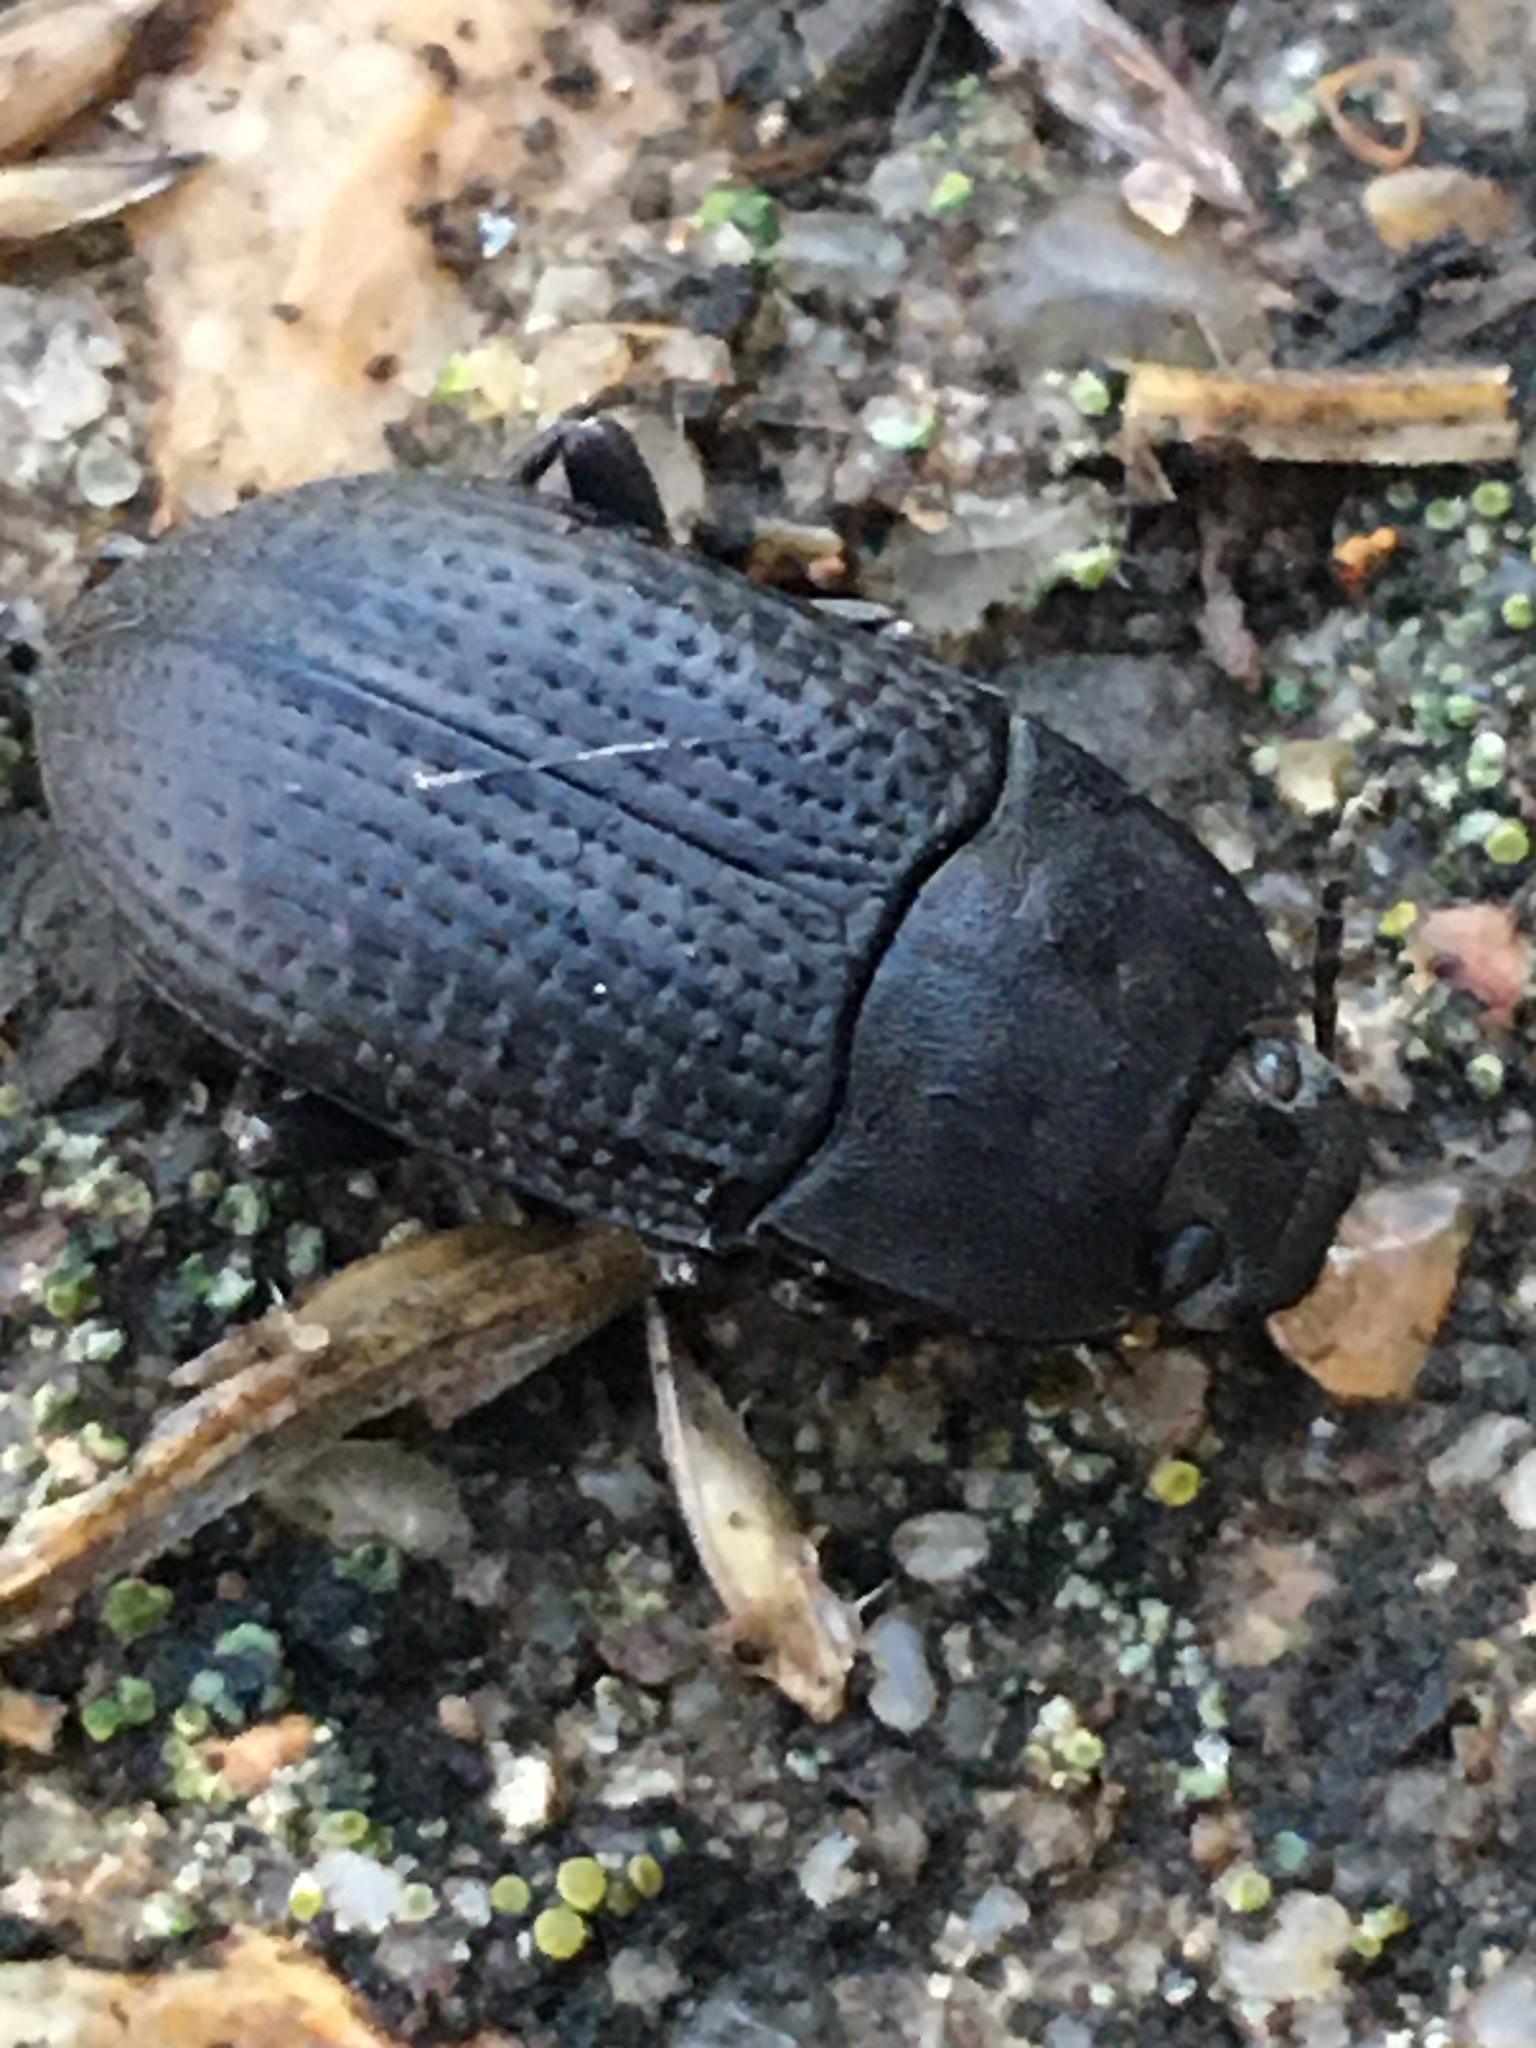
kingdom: Animalia
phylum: Arthropoda
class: Insecta
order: Coleoptera
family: Tenebrionidae
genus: Asiopus
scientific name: Asiopus
